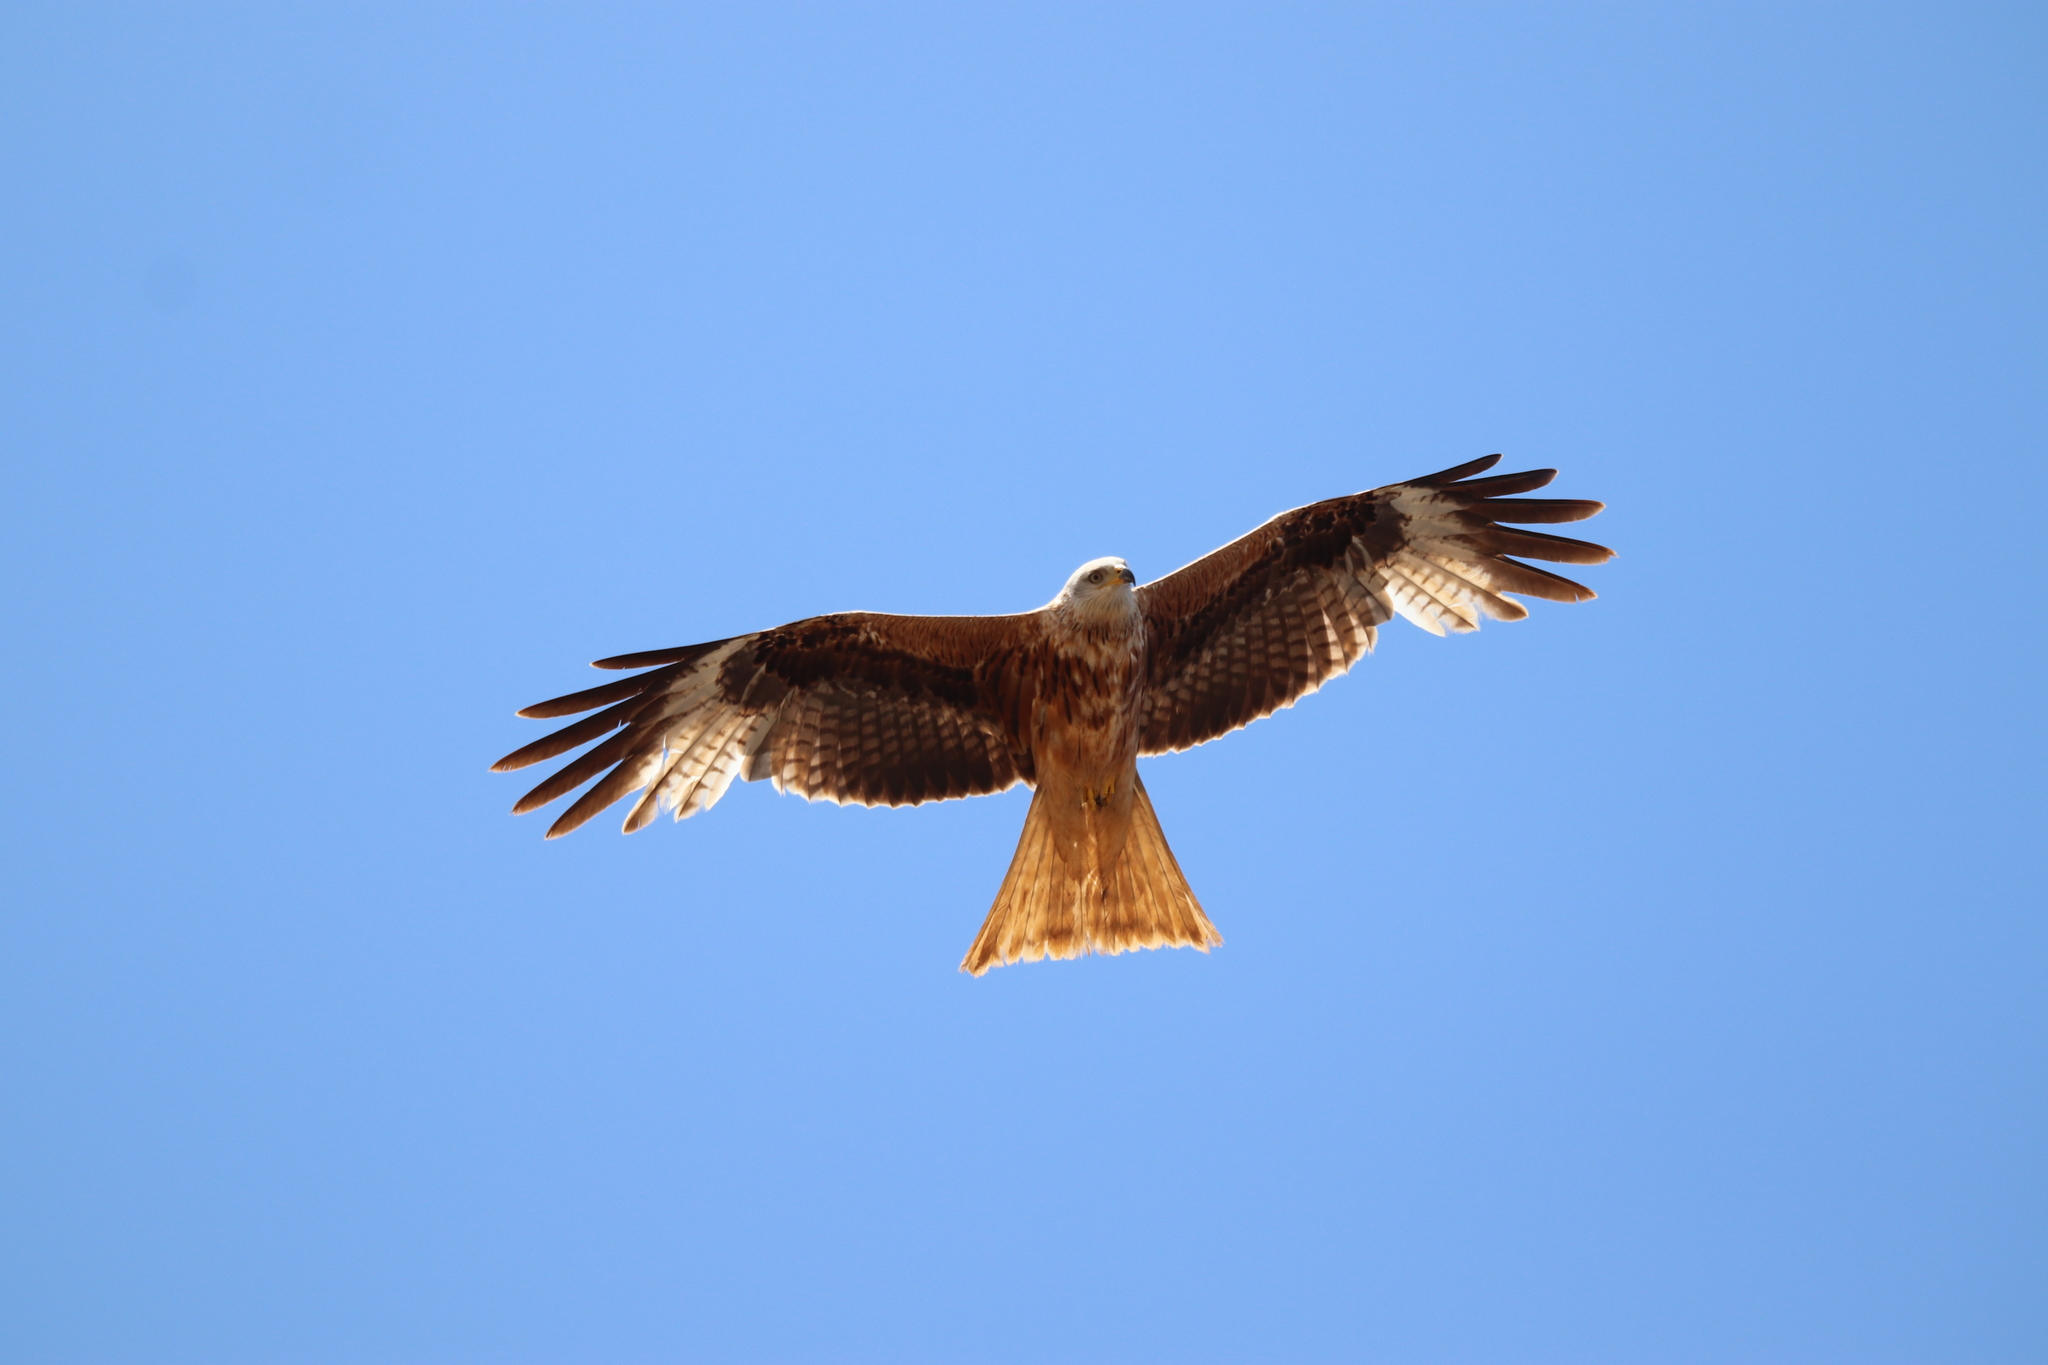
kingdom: Animalia
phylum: Chordata
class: Aves
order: Accipitriformes
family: Accipitridae
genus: Milvus
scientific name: Milvus milvus
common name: Red kite
